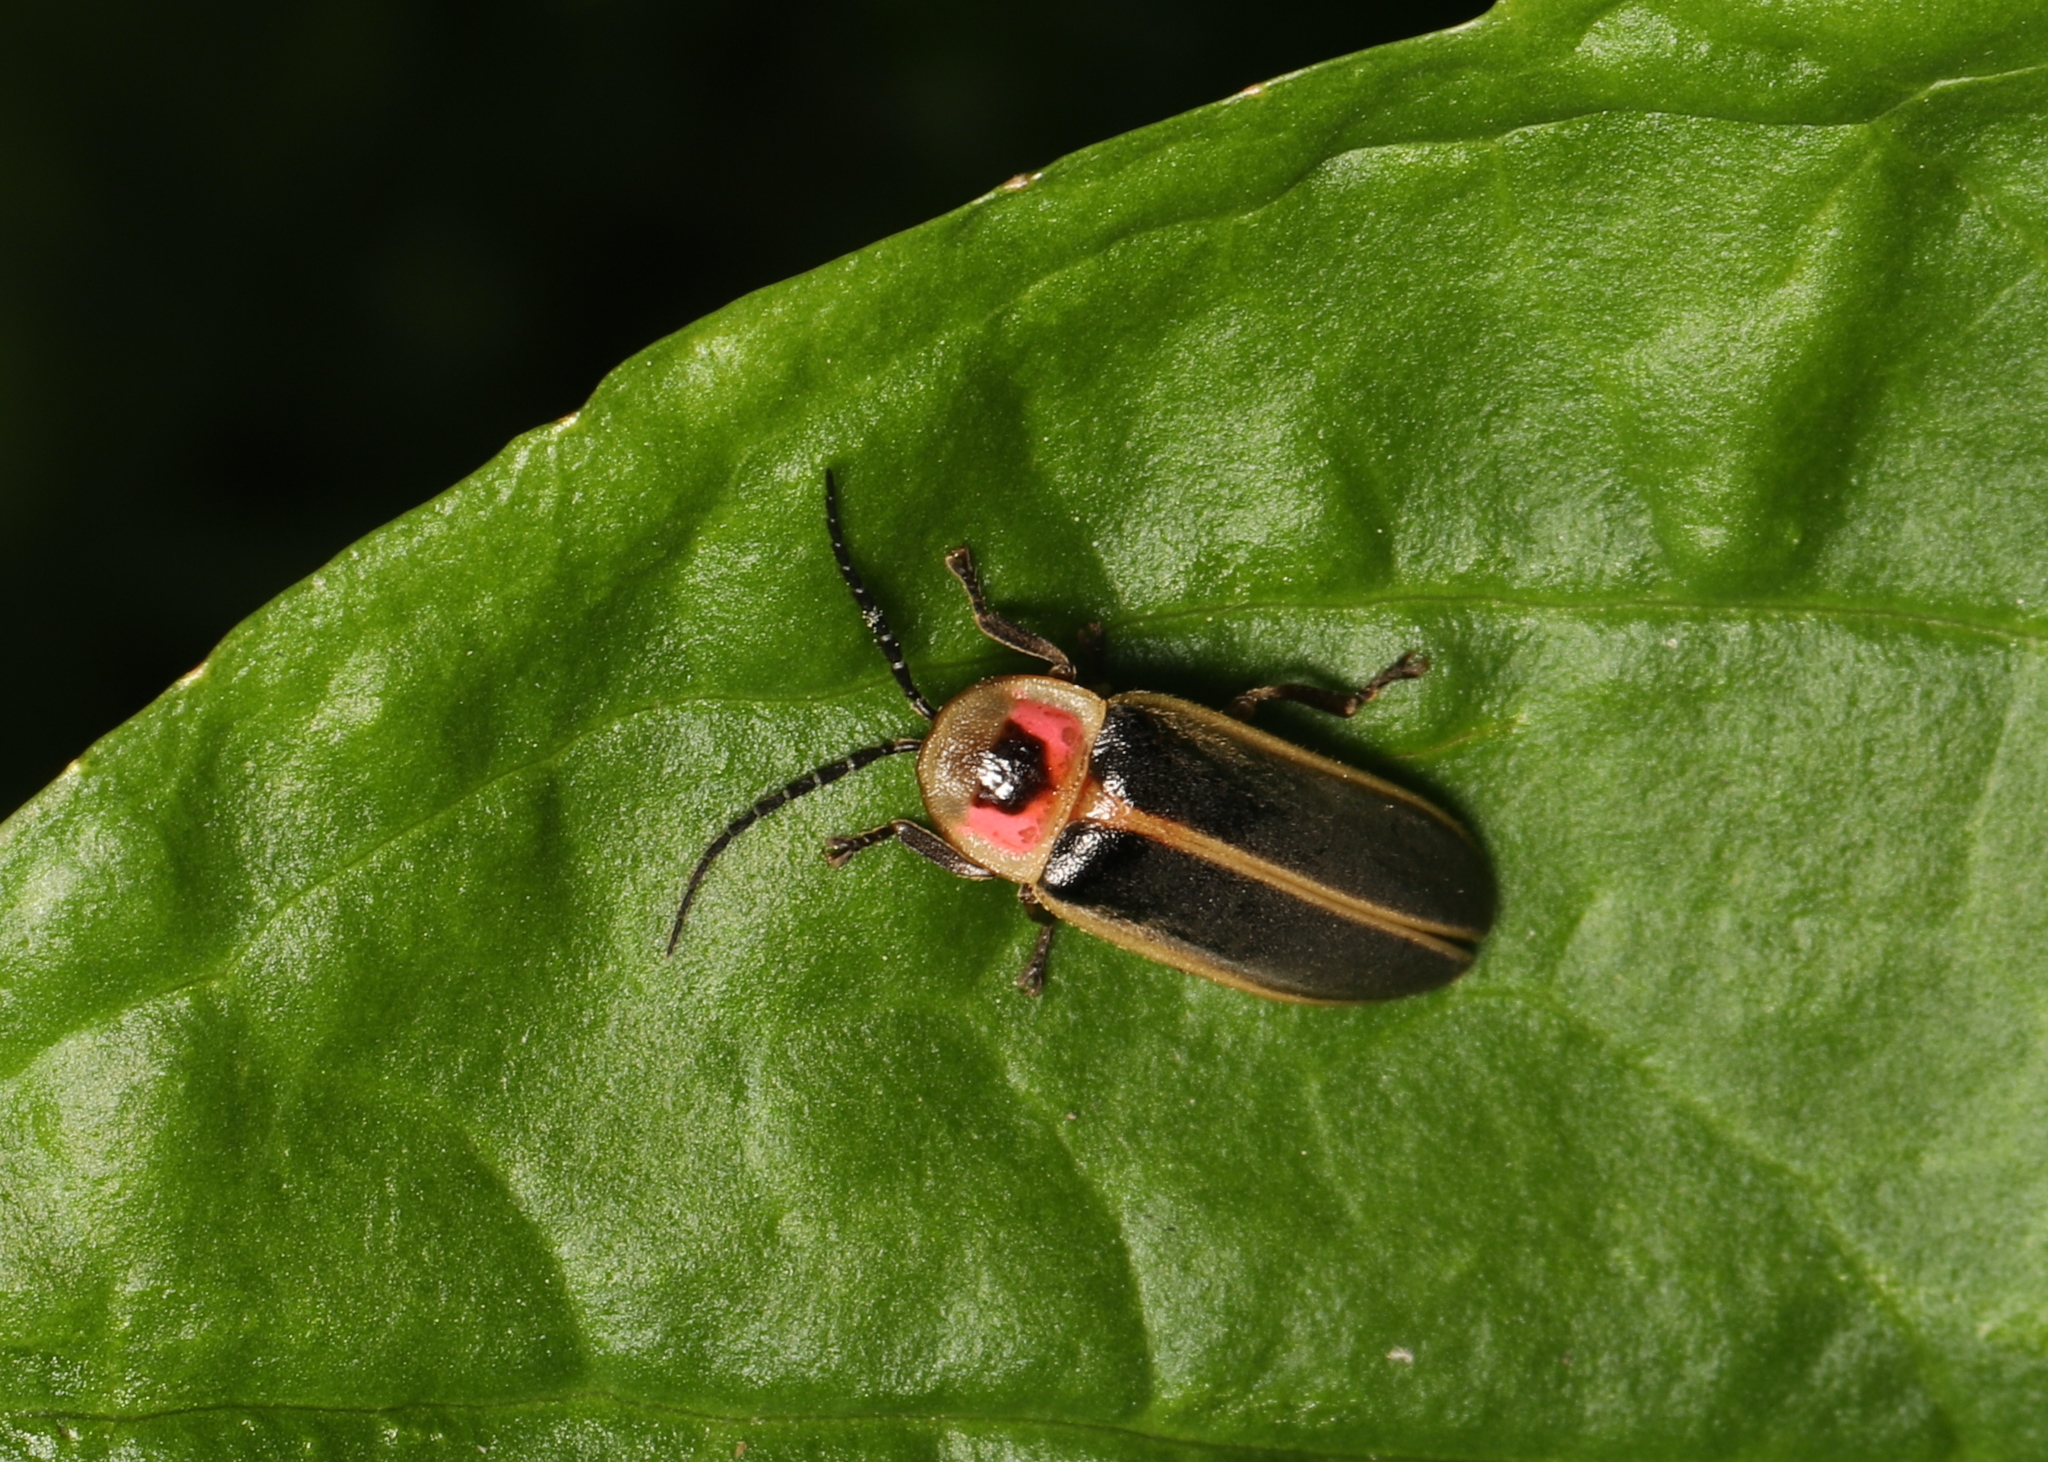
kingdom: Animalia
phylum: Arthropoda
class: Insecta
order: Coleoptera
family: Lampyridae
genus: Photinus
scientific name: Photinus pyralis
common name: Big dipper firefly
